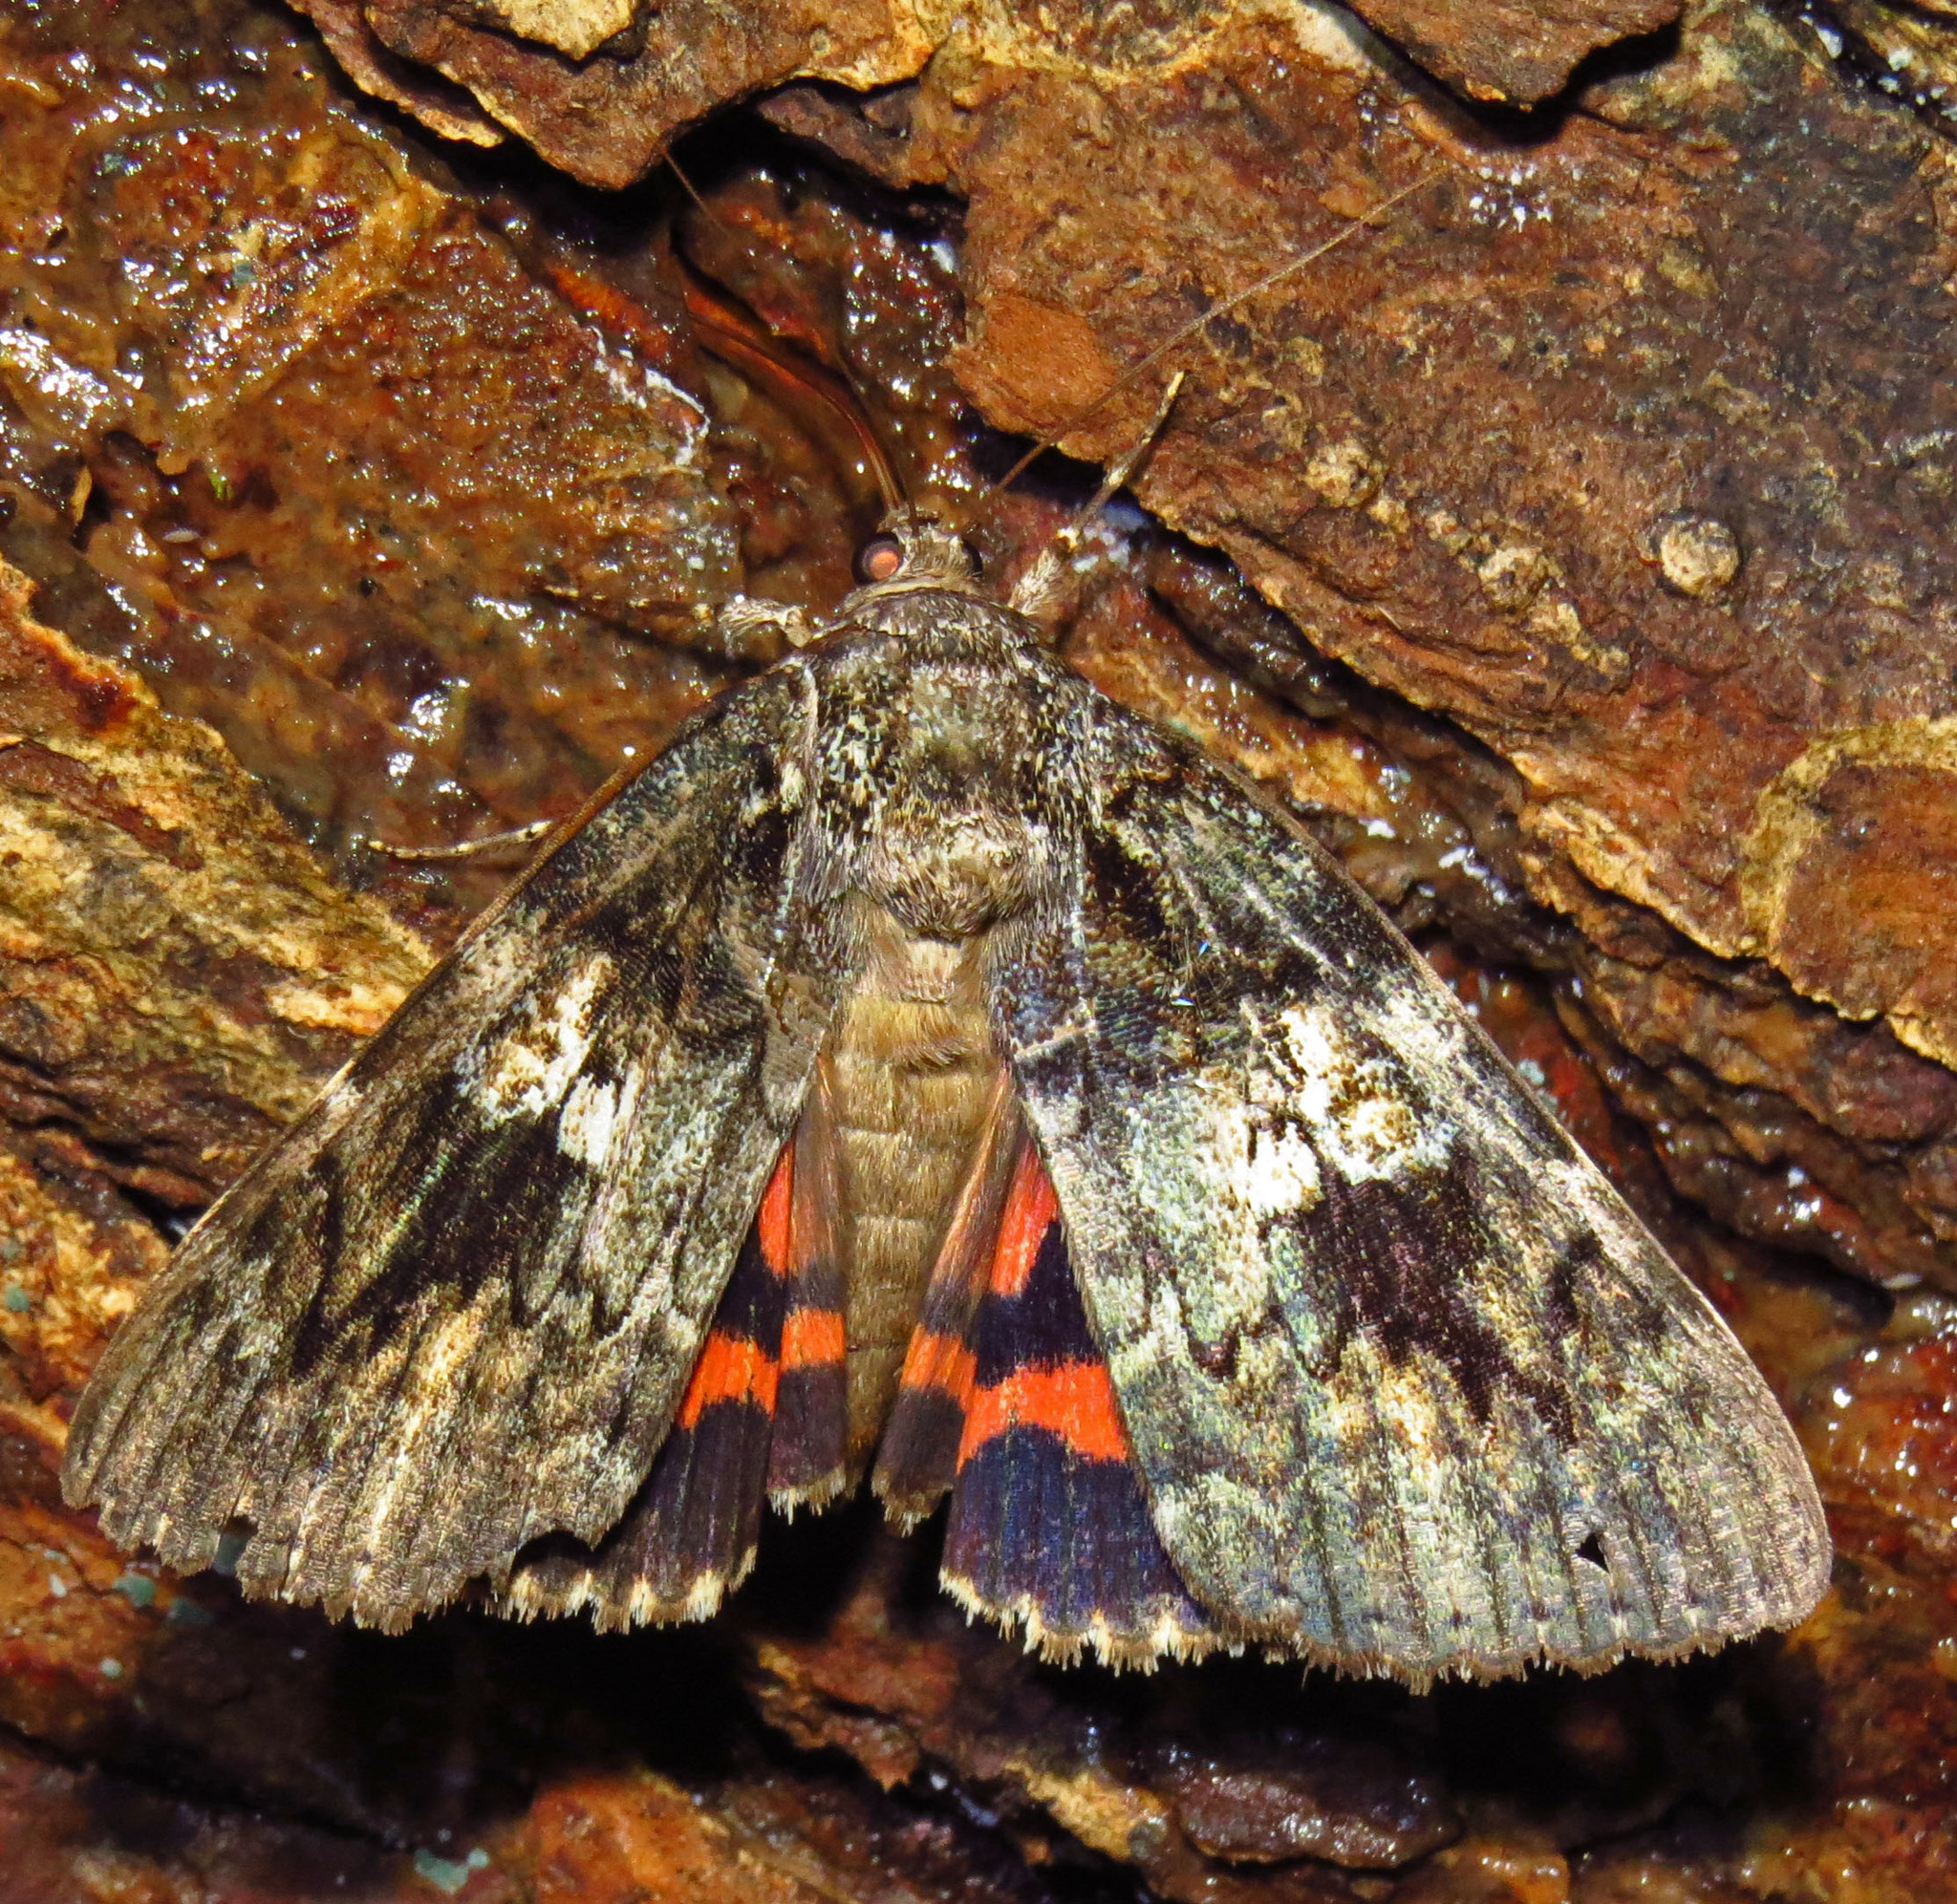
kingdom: Animalia
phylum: Arthropoda
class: Insecta
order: Lepidoptera
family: Erebidae
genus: Catocala
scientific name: Catocala ilia
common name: Ilia underwing
